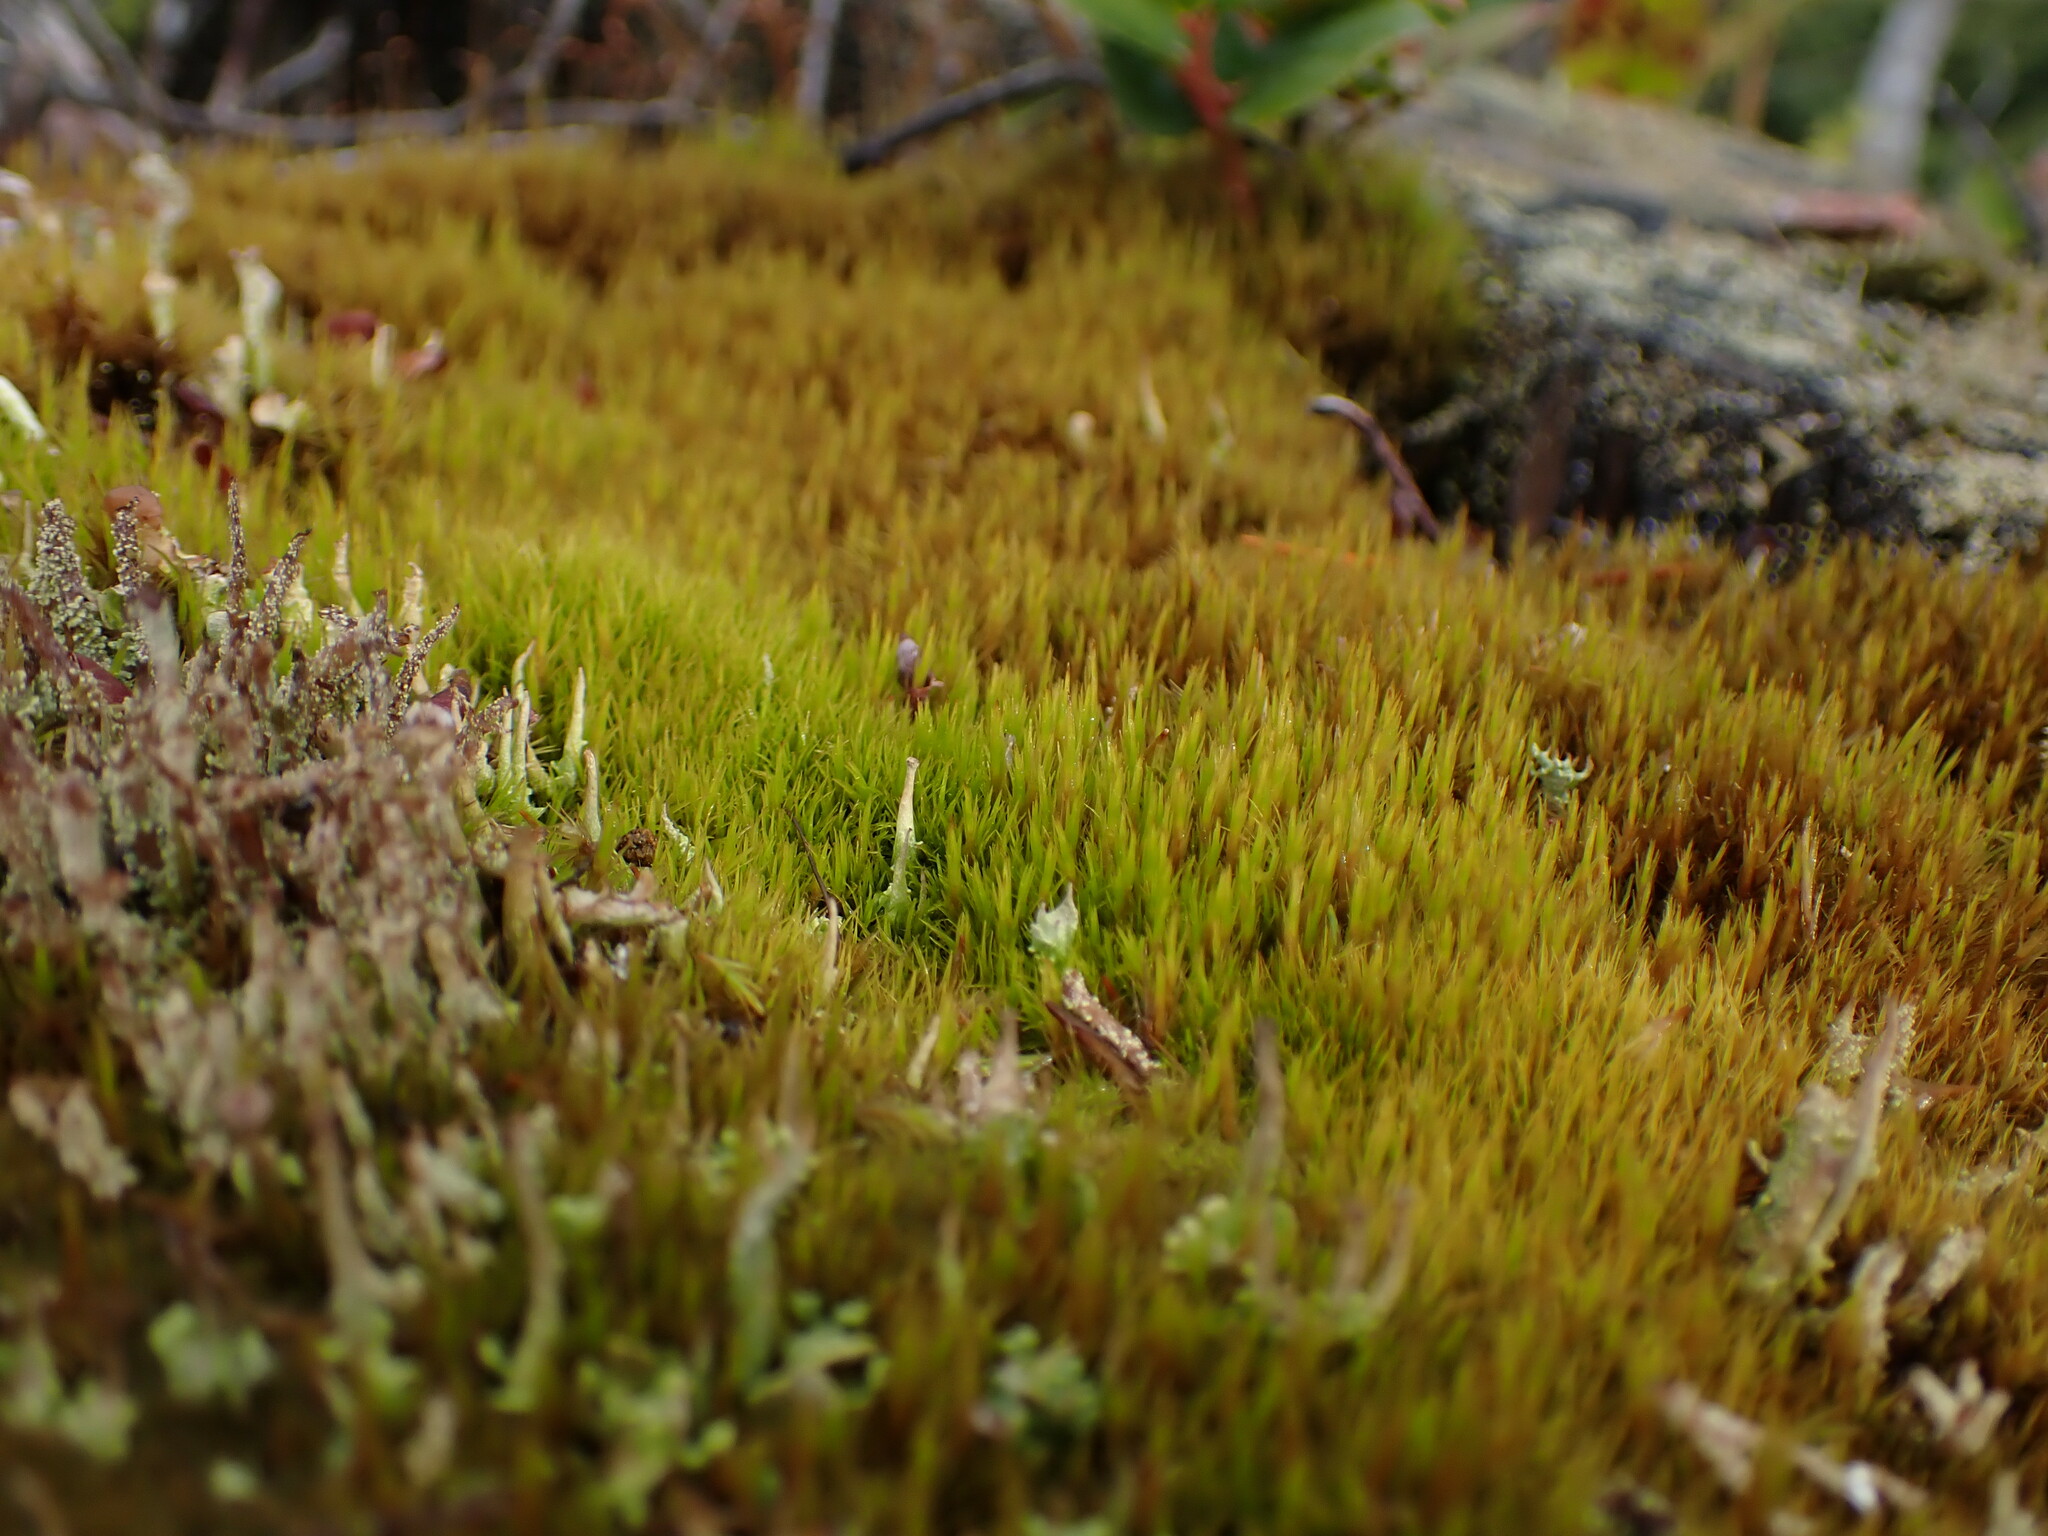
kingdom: Plantae
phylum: Bryophyta
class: Bryopsida
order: Dicranales
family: Dicranaceae
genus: Orthodicranum
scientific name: Orthodicranum tauricum
